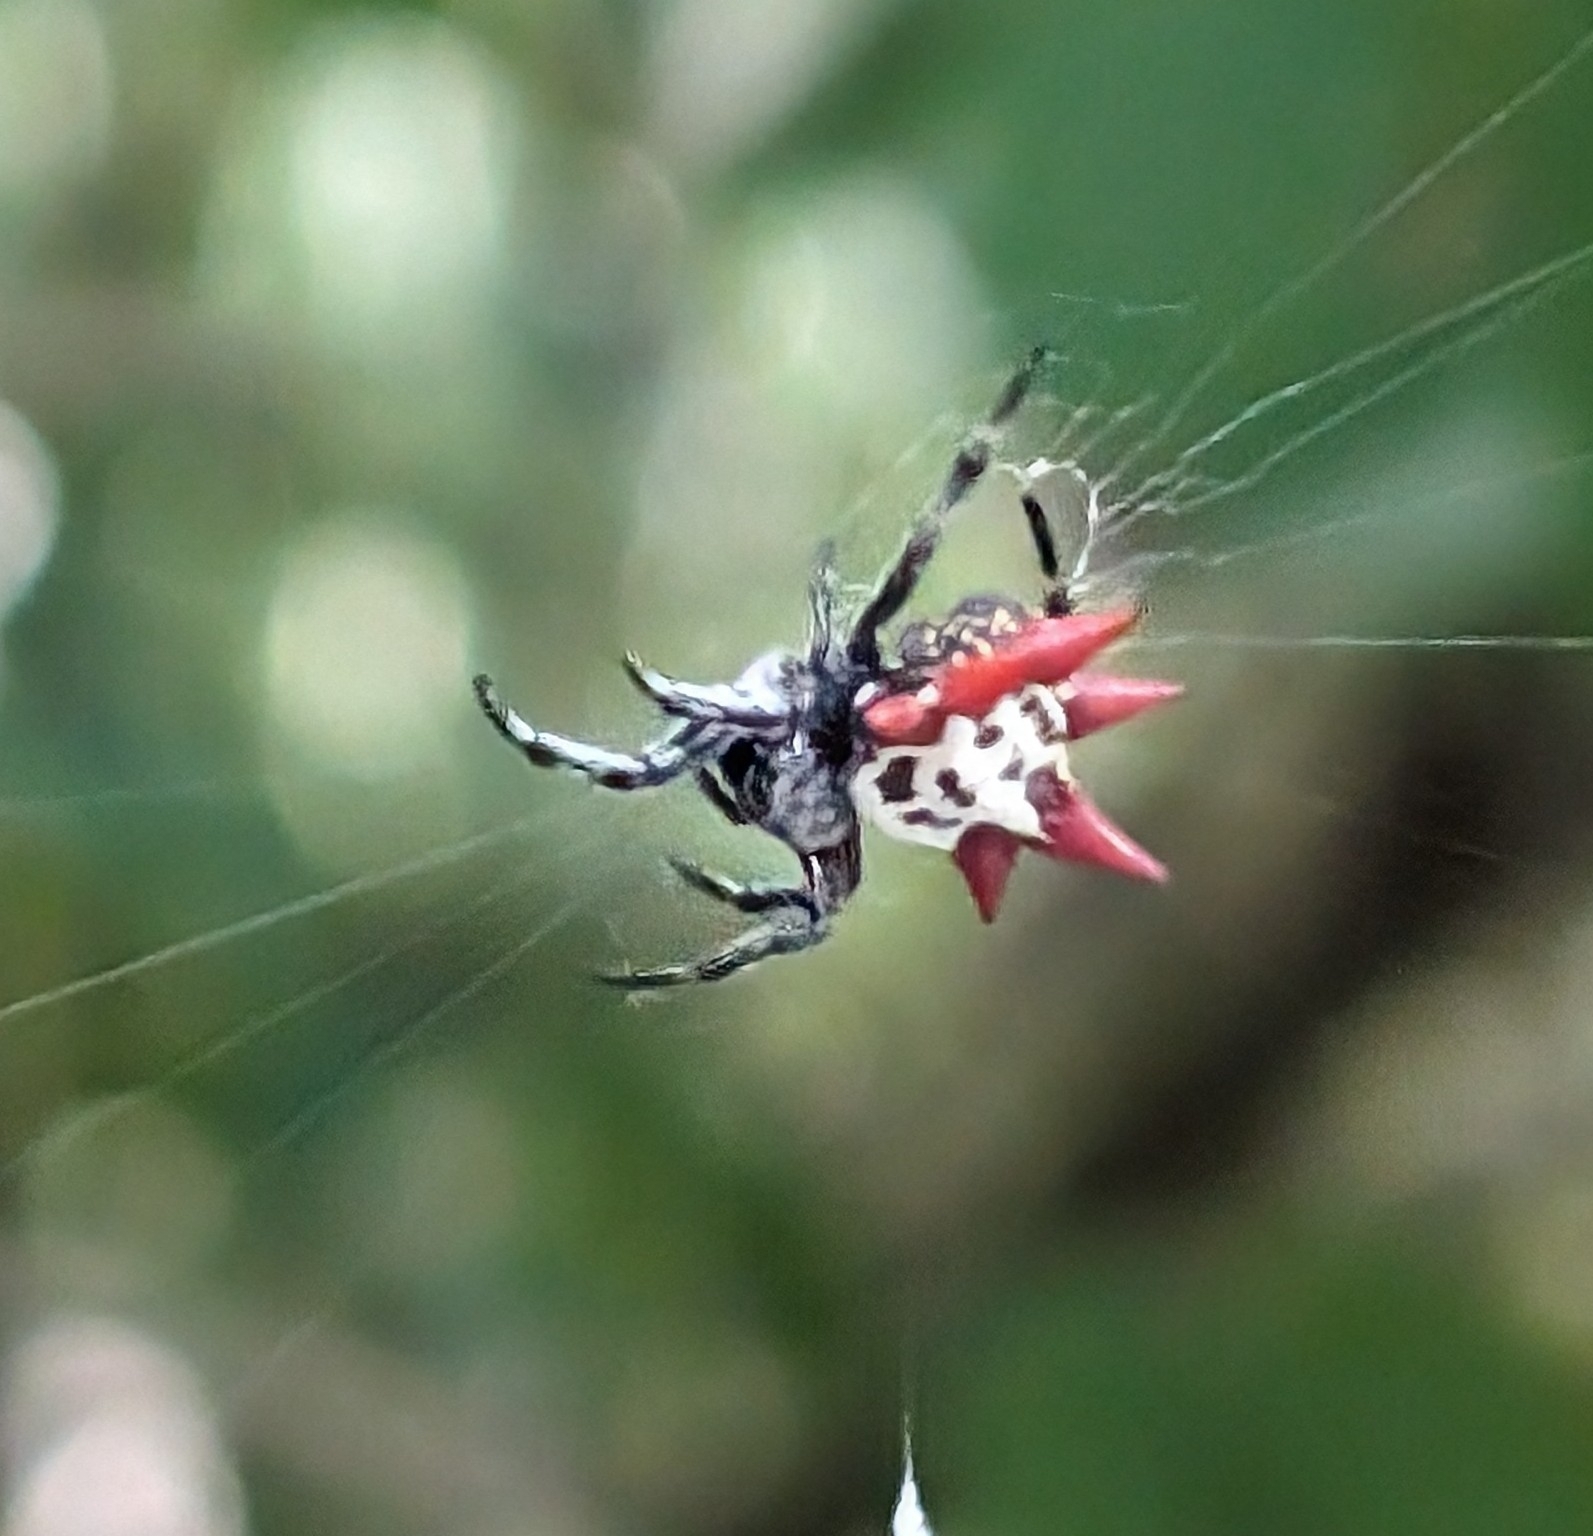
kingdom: Animalia
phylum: Arthropoda
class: Arachnida
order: Araneae
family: Araneidae
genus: Gasteracantha
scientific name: Gasteracantha cancriformis
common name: Orb weavers
